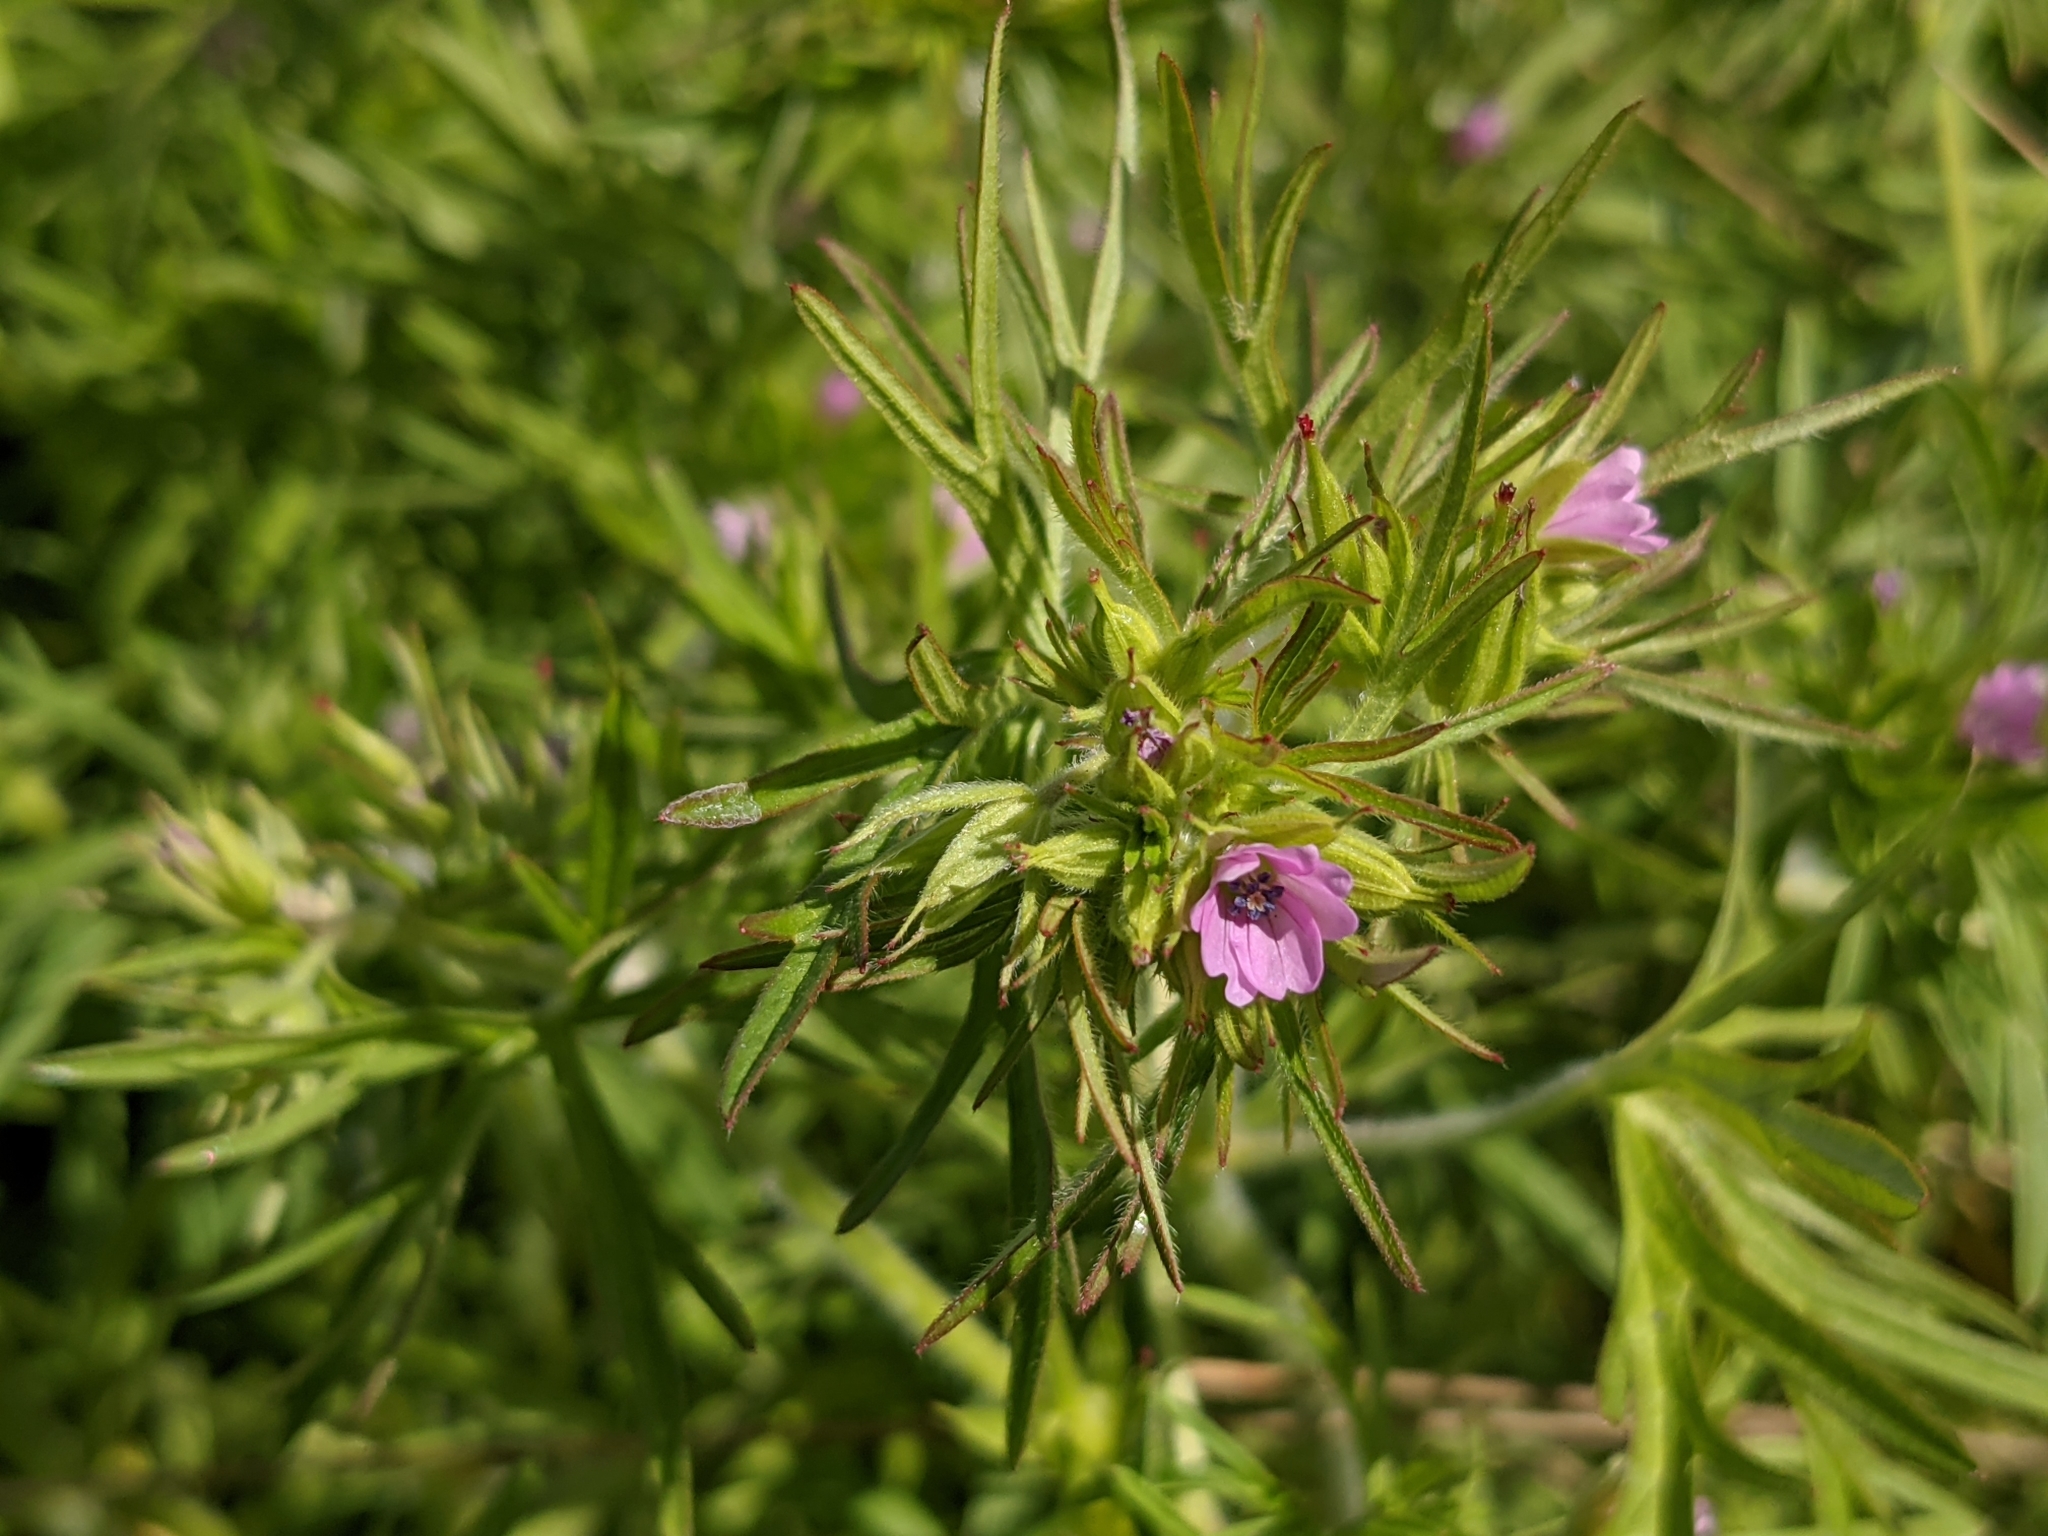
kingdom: Plantae
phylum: Tracheophyta
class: Magnoliopsida
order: Geraniales
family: Geraniaceae
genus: Geranium
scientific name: Geranium dissectum
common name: Cut-leaved crane's-bill
